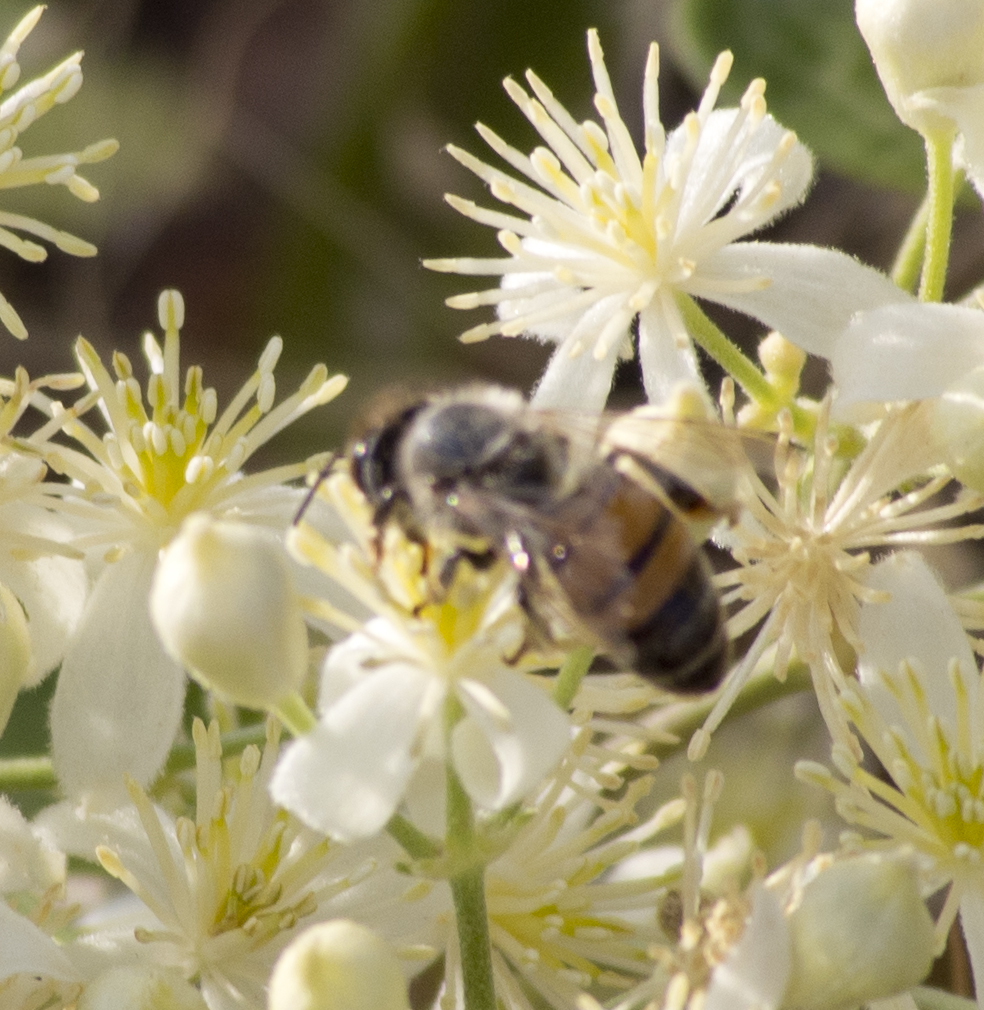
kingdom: Animalia
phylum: Arthropoda
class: Insecta
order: Hymenoptera
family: Apidae
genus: Apis
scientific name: Apis mellifera
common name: Honey bee
